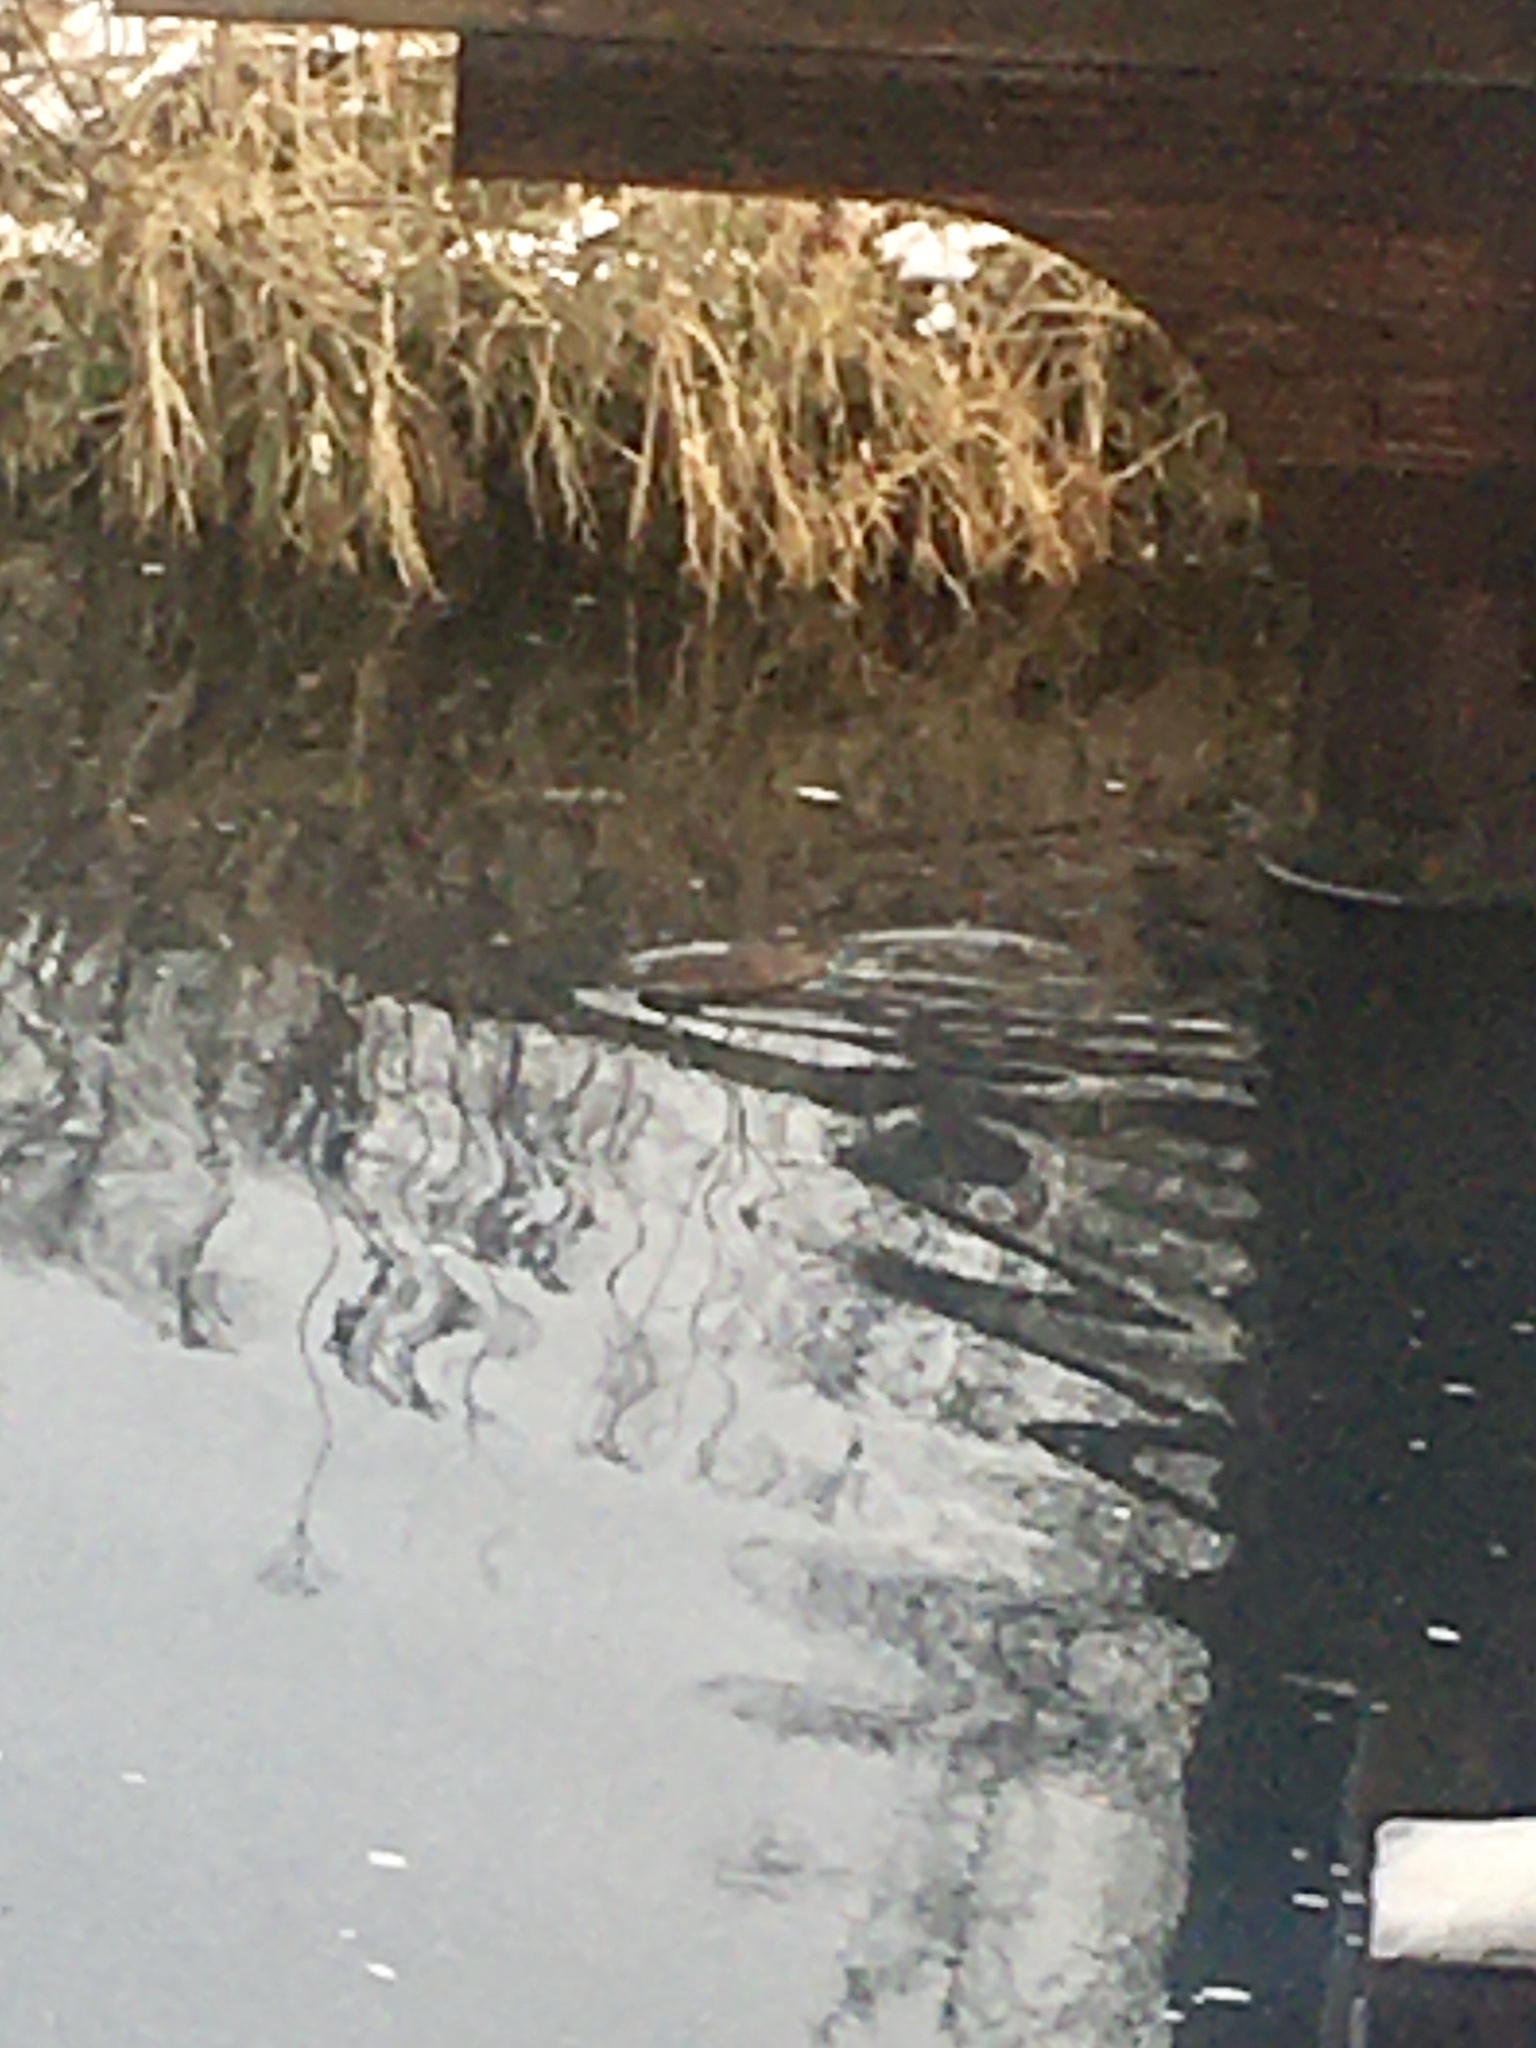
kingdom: Animalia
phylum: Chordata
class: Mammalia
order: Rodentia
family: Cricetidae
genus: Ondatra
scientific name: Ondatra zibethicus
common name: Muskrat
